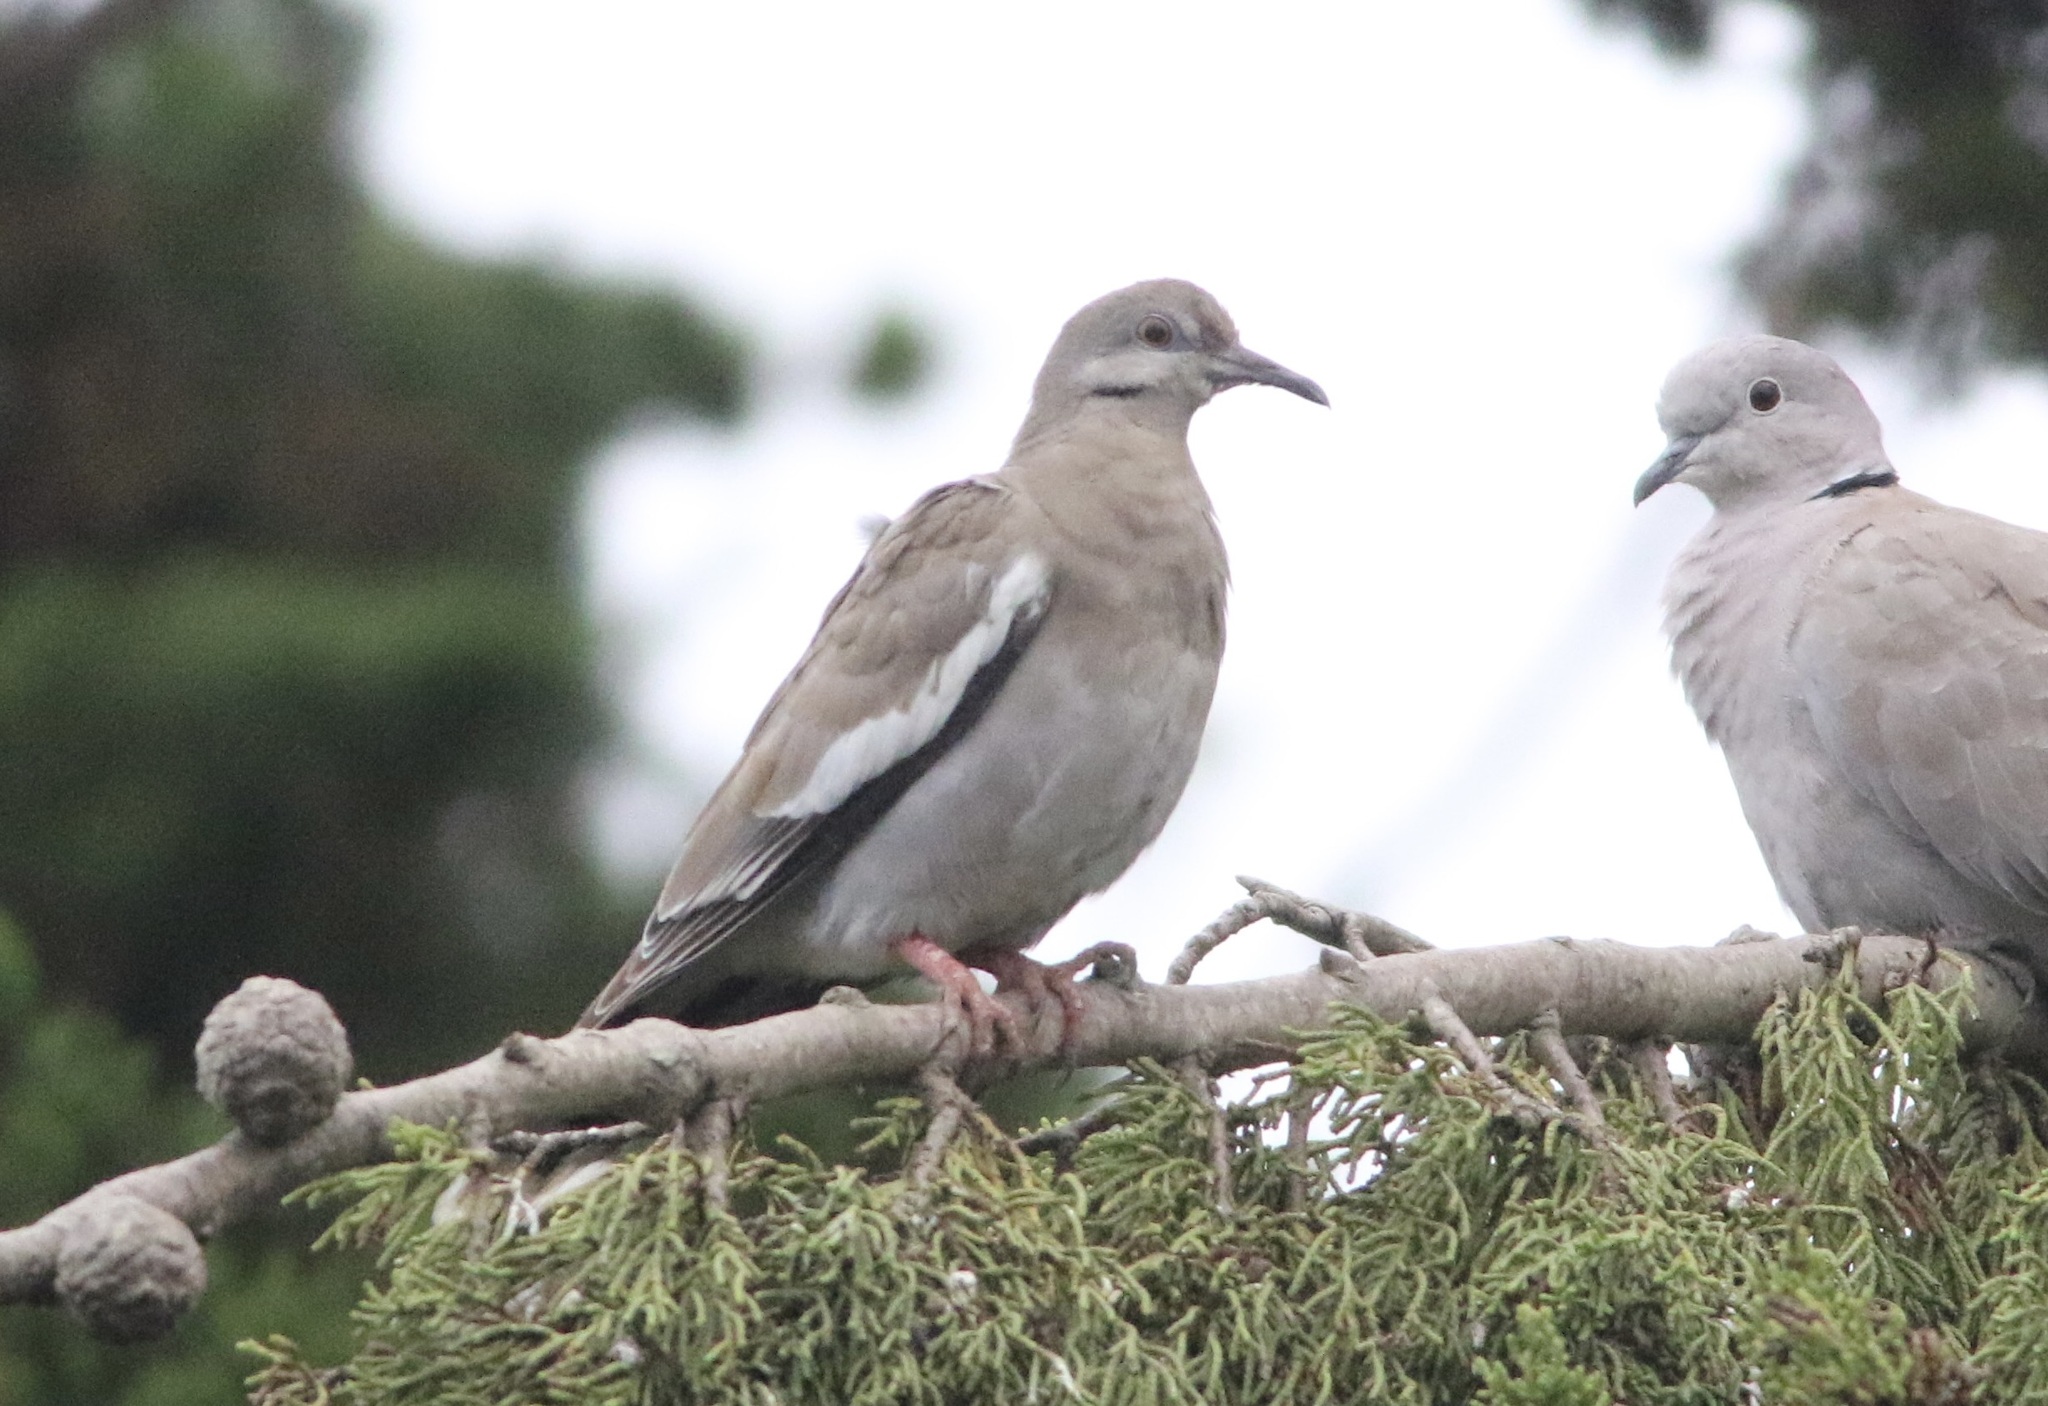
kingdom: Animalia
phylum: Chordata
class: Aves
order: Columbiformes
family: Columbidae
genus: Zenaida
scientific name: Zenaida asiatica
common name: White-winged dove
